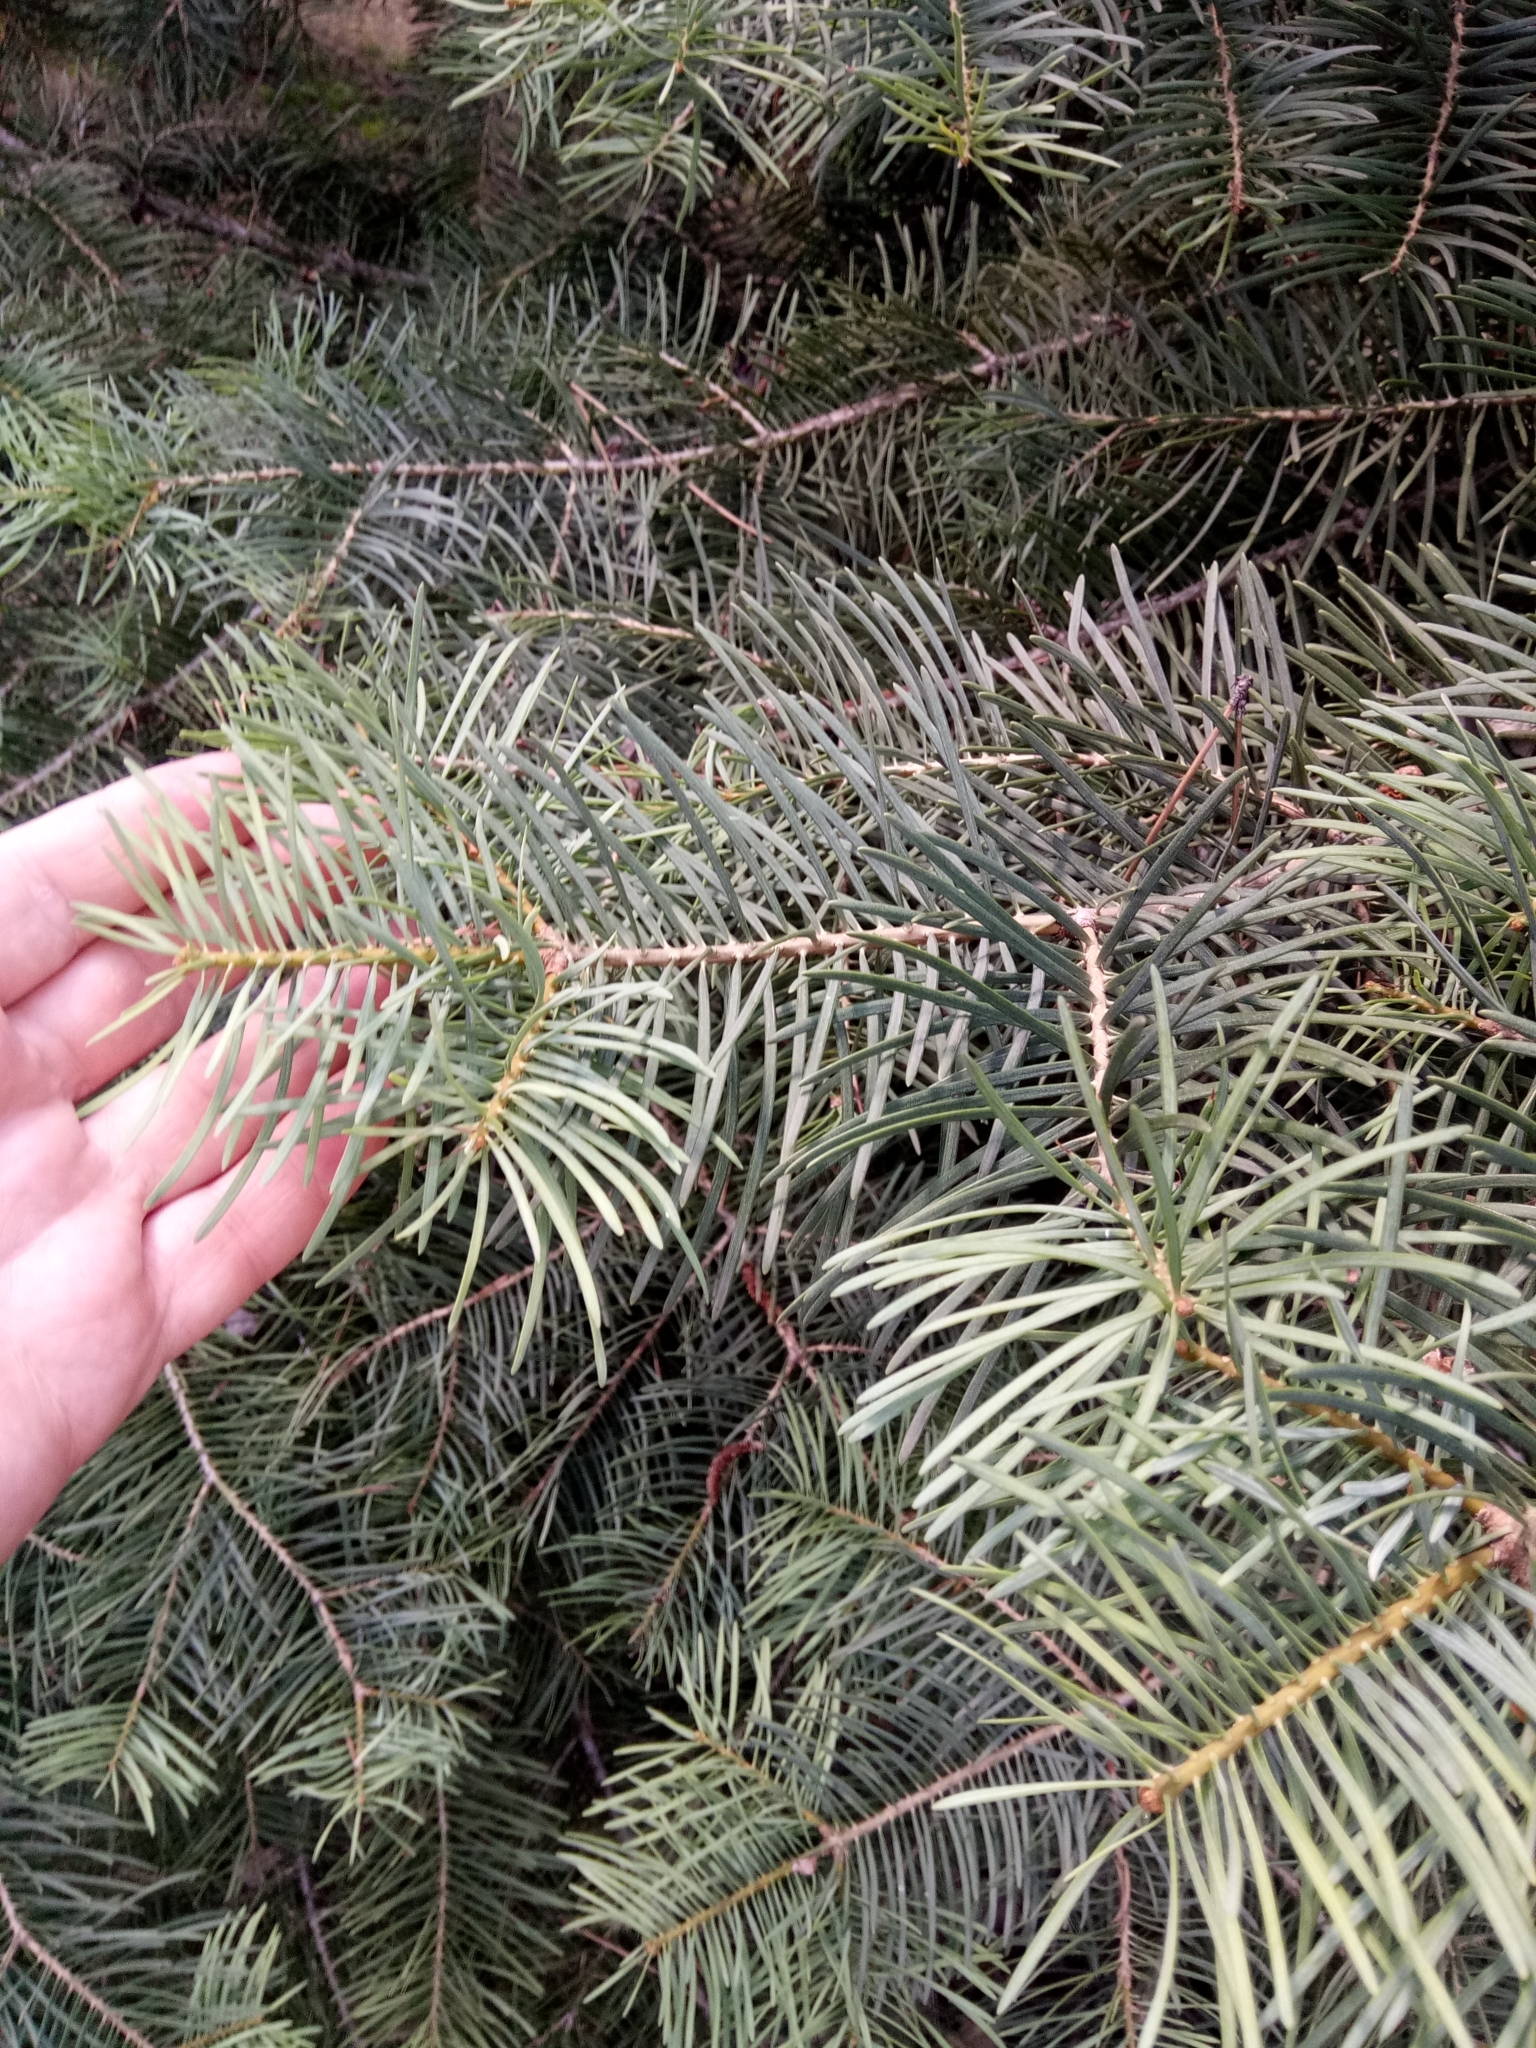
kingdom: Plantae
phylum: Tracheophyta
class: Pinopsida
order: Pinales
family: Pinaceae
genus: Abies
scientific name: Abies concolor
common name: Colorado fir
